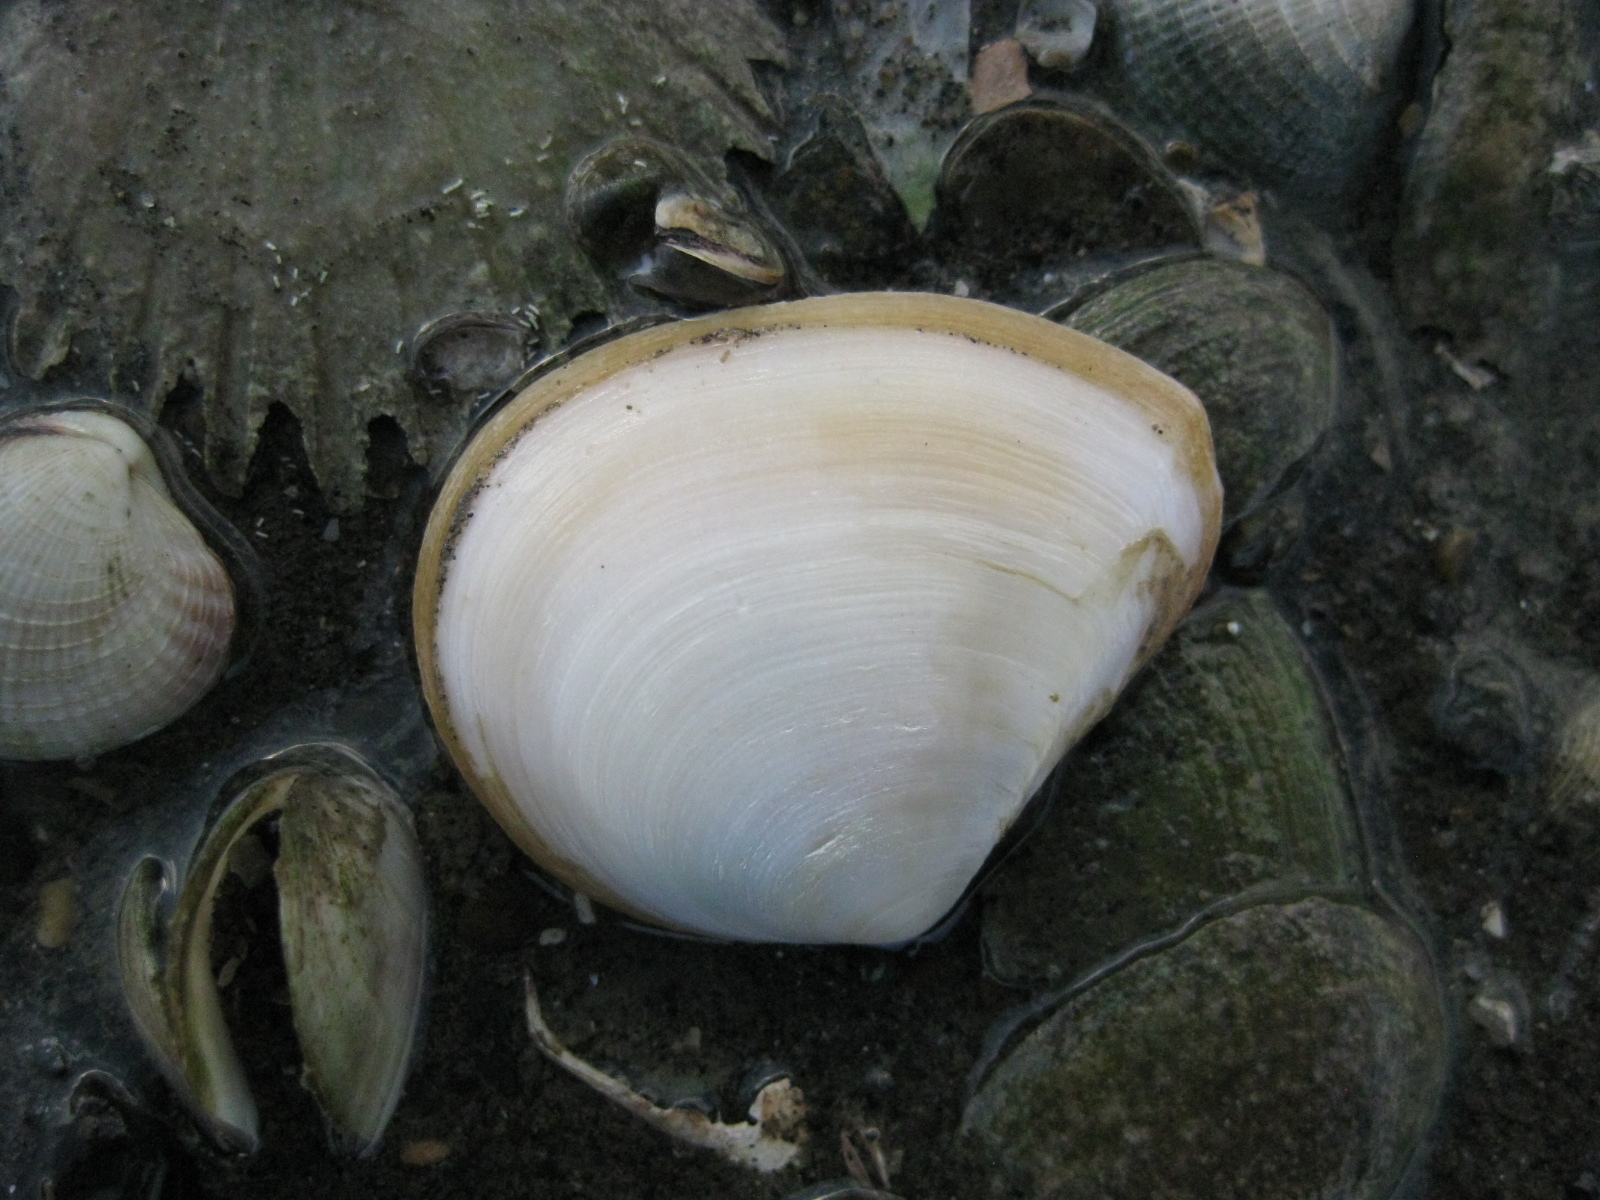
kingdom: Animalia
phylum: Mollusca
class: Bivalvia
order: Cardiida
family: Tellinidae
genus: Macomona
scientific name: Macomona liliana
